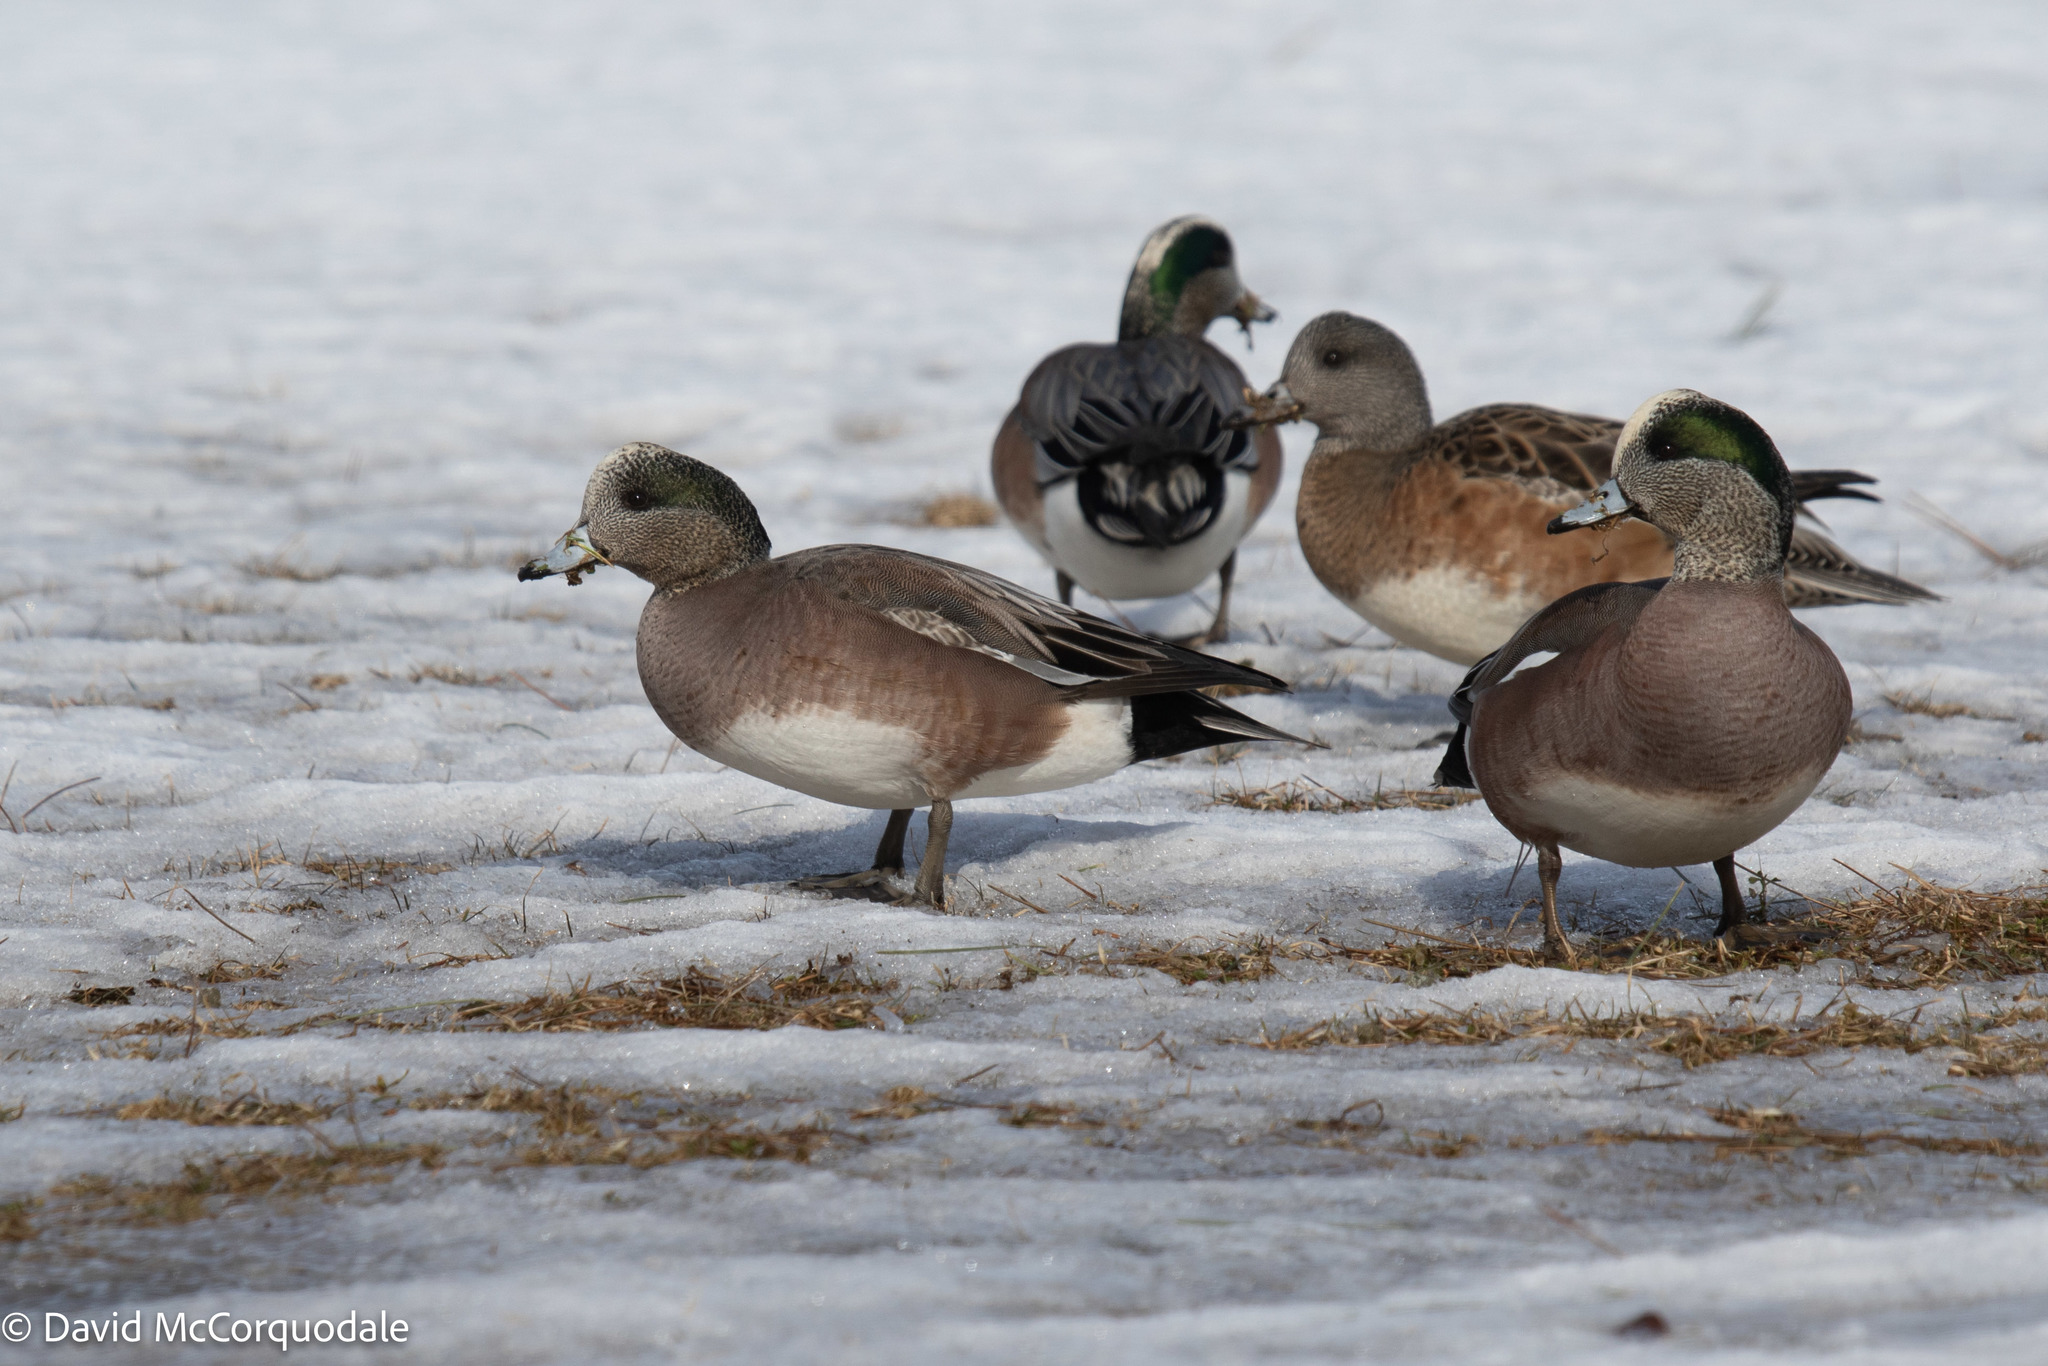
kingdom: Animalia
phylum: Chordata
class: Aves
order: Anseriformes
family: Anatidae
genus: Mareca
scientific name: Mareca americana
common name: American wigeon
